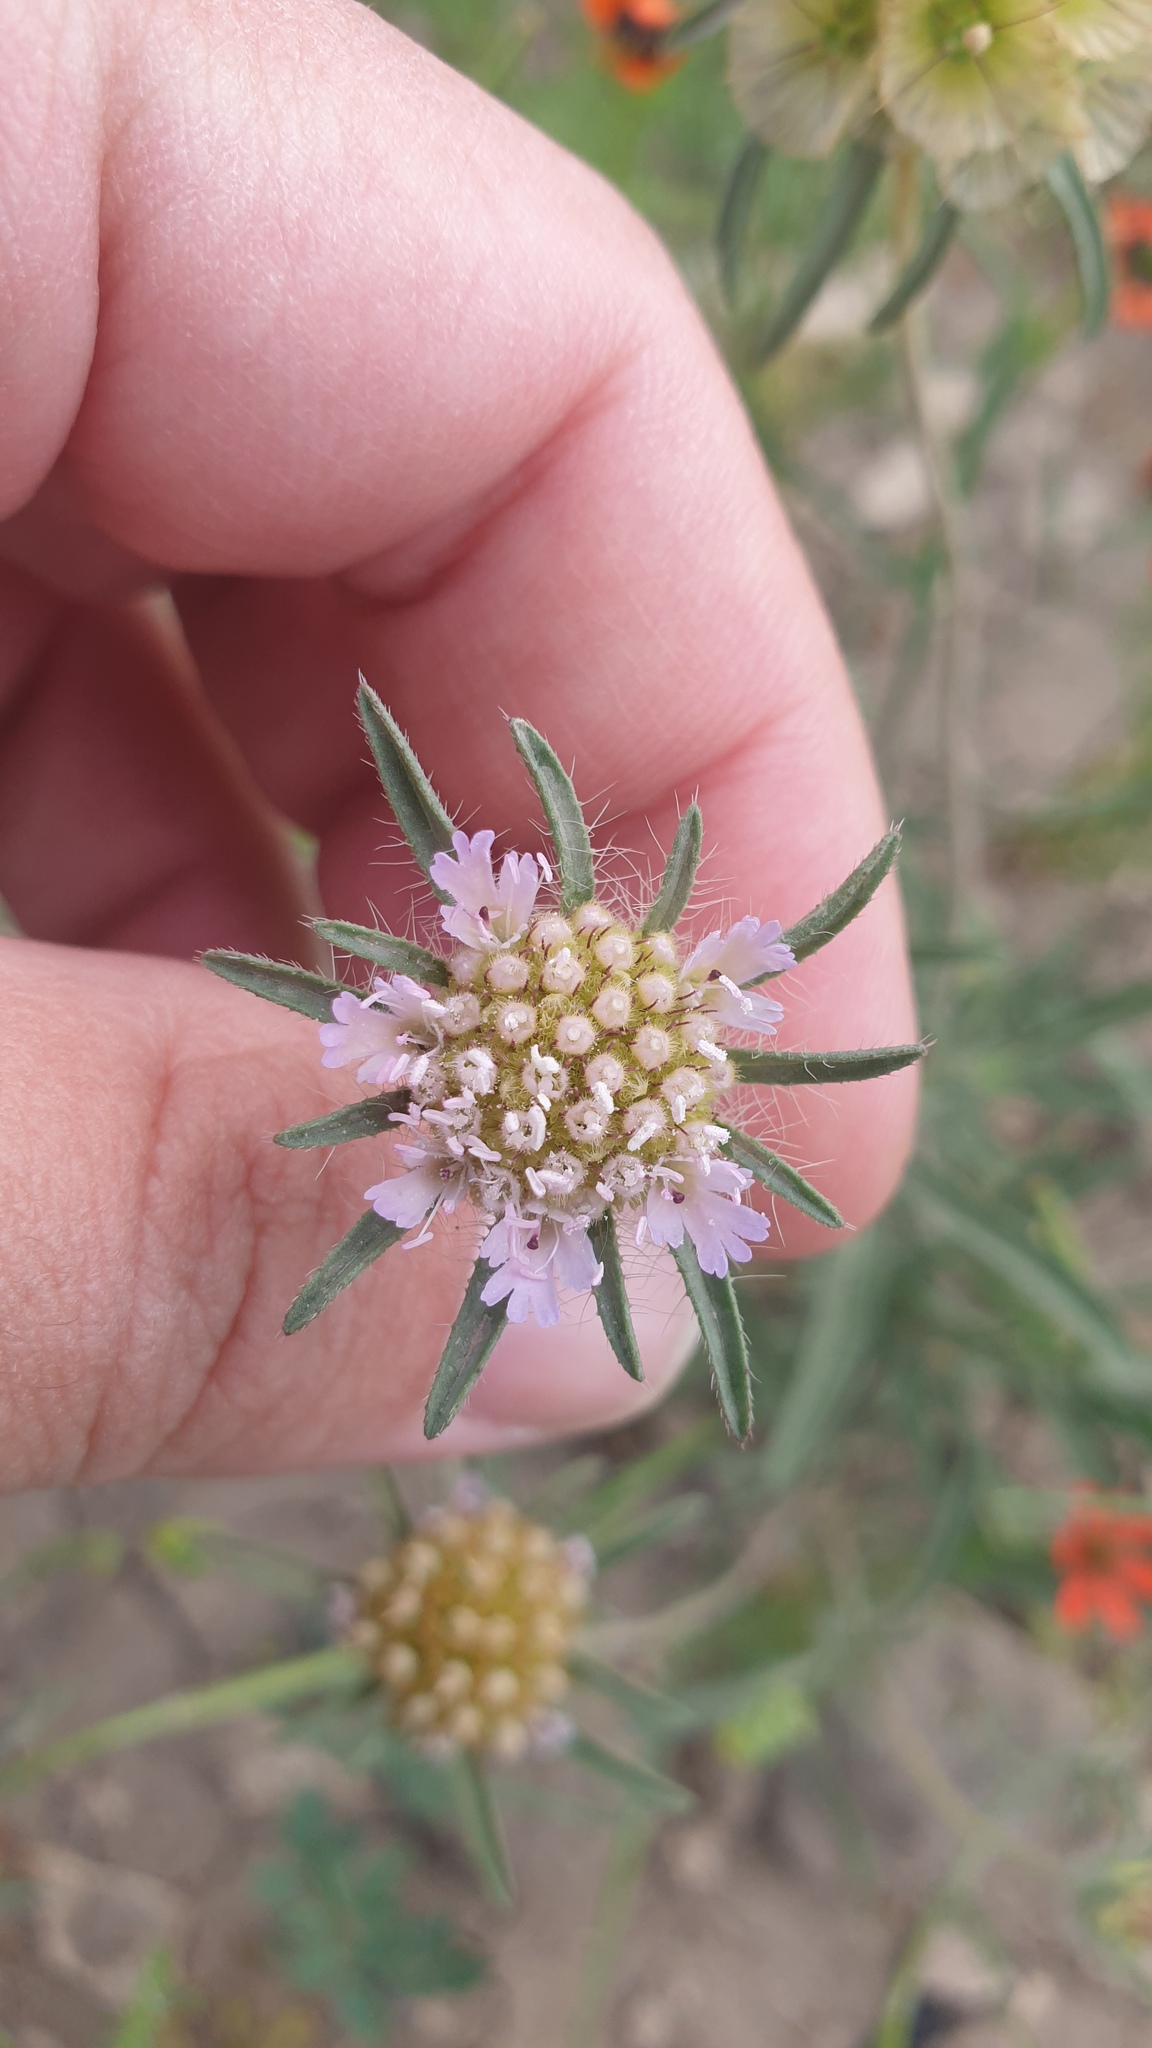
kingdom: Plantae
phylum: Tracheophyta
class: Magnoliopsida
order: Dipsacales
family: Caprifoliaceae
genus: Lomelosia
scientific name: Lomelosia micrantha
